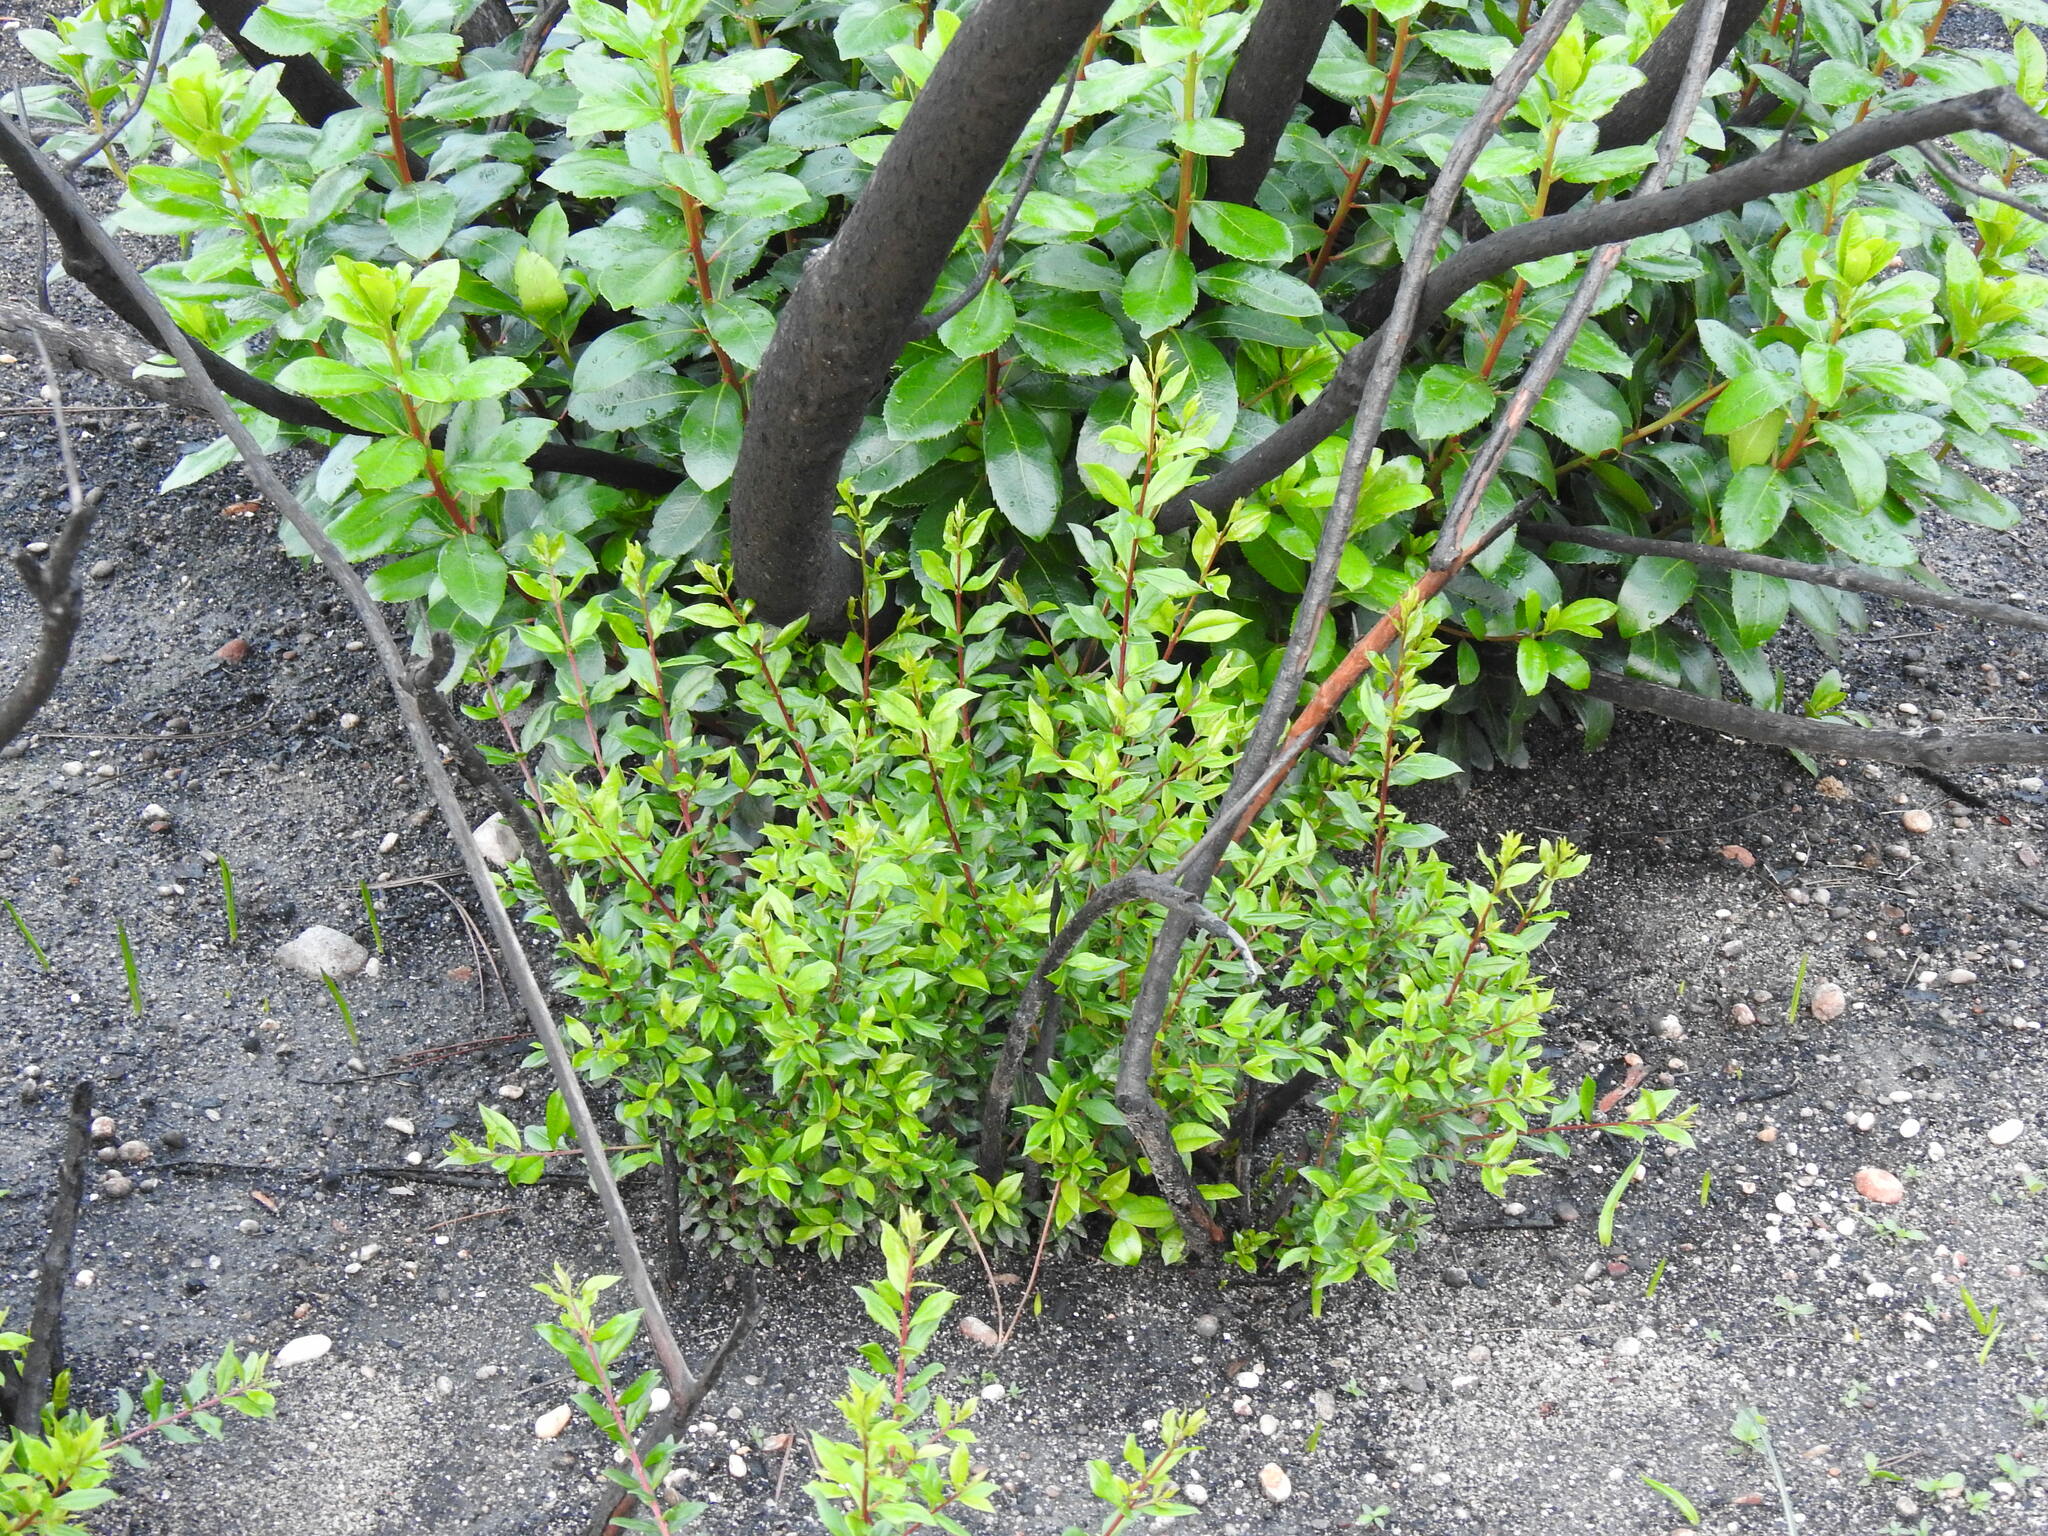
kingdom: Plantae
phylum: Tracheophyta
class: Magnoliopsida
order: Myrtales
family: Myrtaceae
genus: Myrtus
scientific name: Myrtus communis
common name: Myrtle
